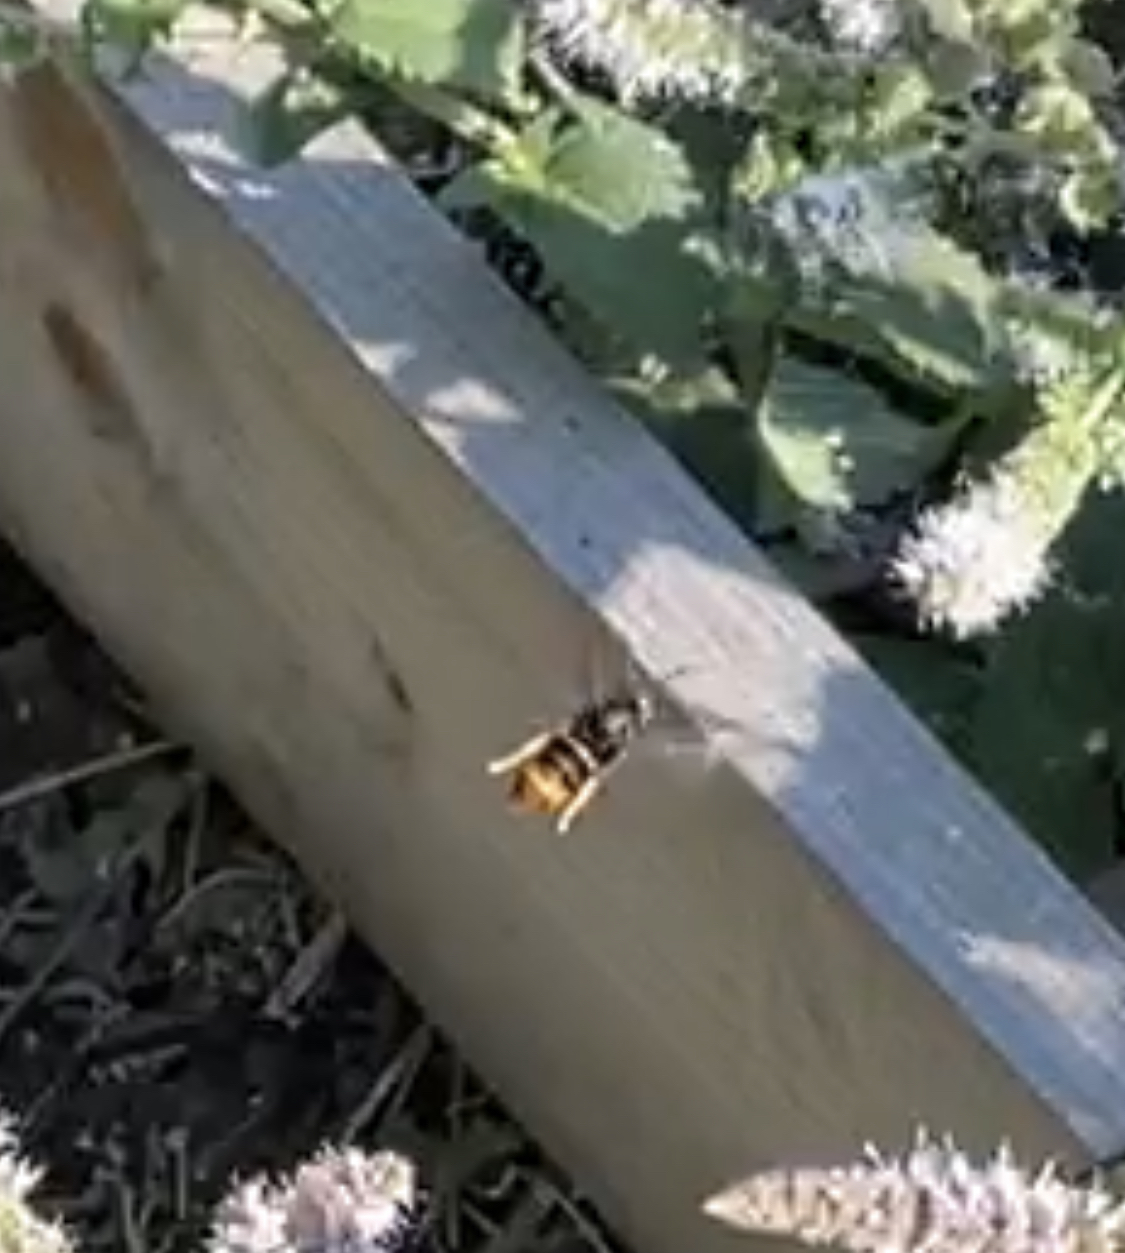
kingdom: Animalia
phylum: Arthropoda
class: Insecta
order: Hymenoptera
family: Vespidae
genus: Vespa
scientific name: Vespa velutina
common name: Asian hornet
